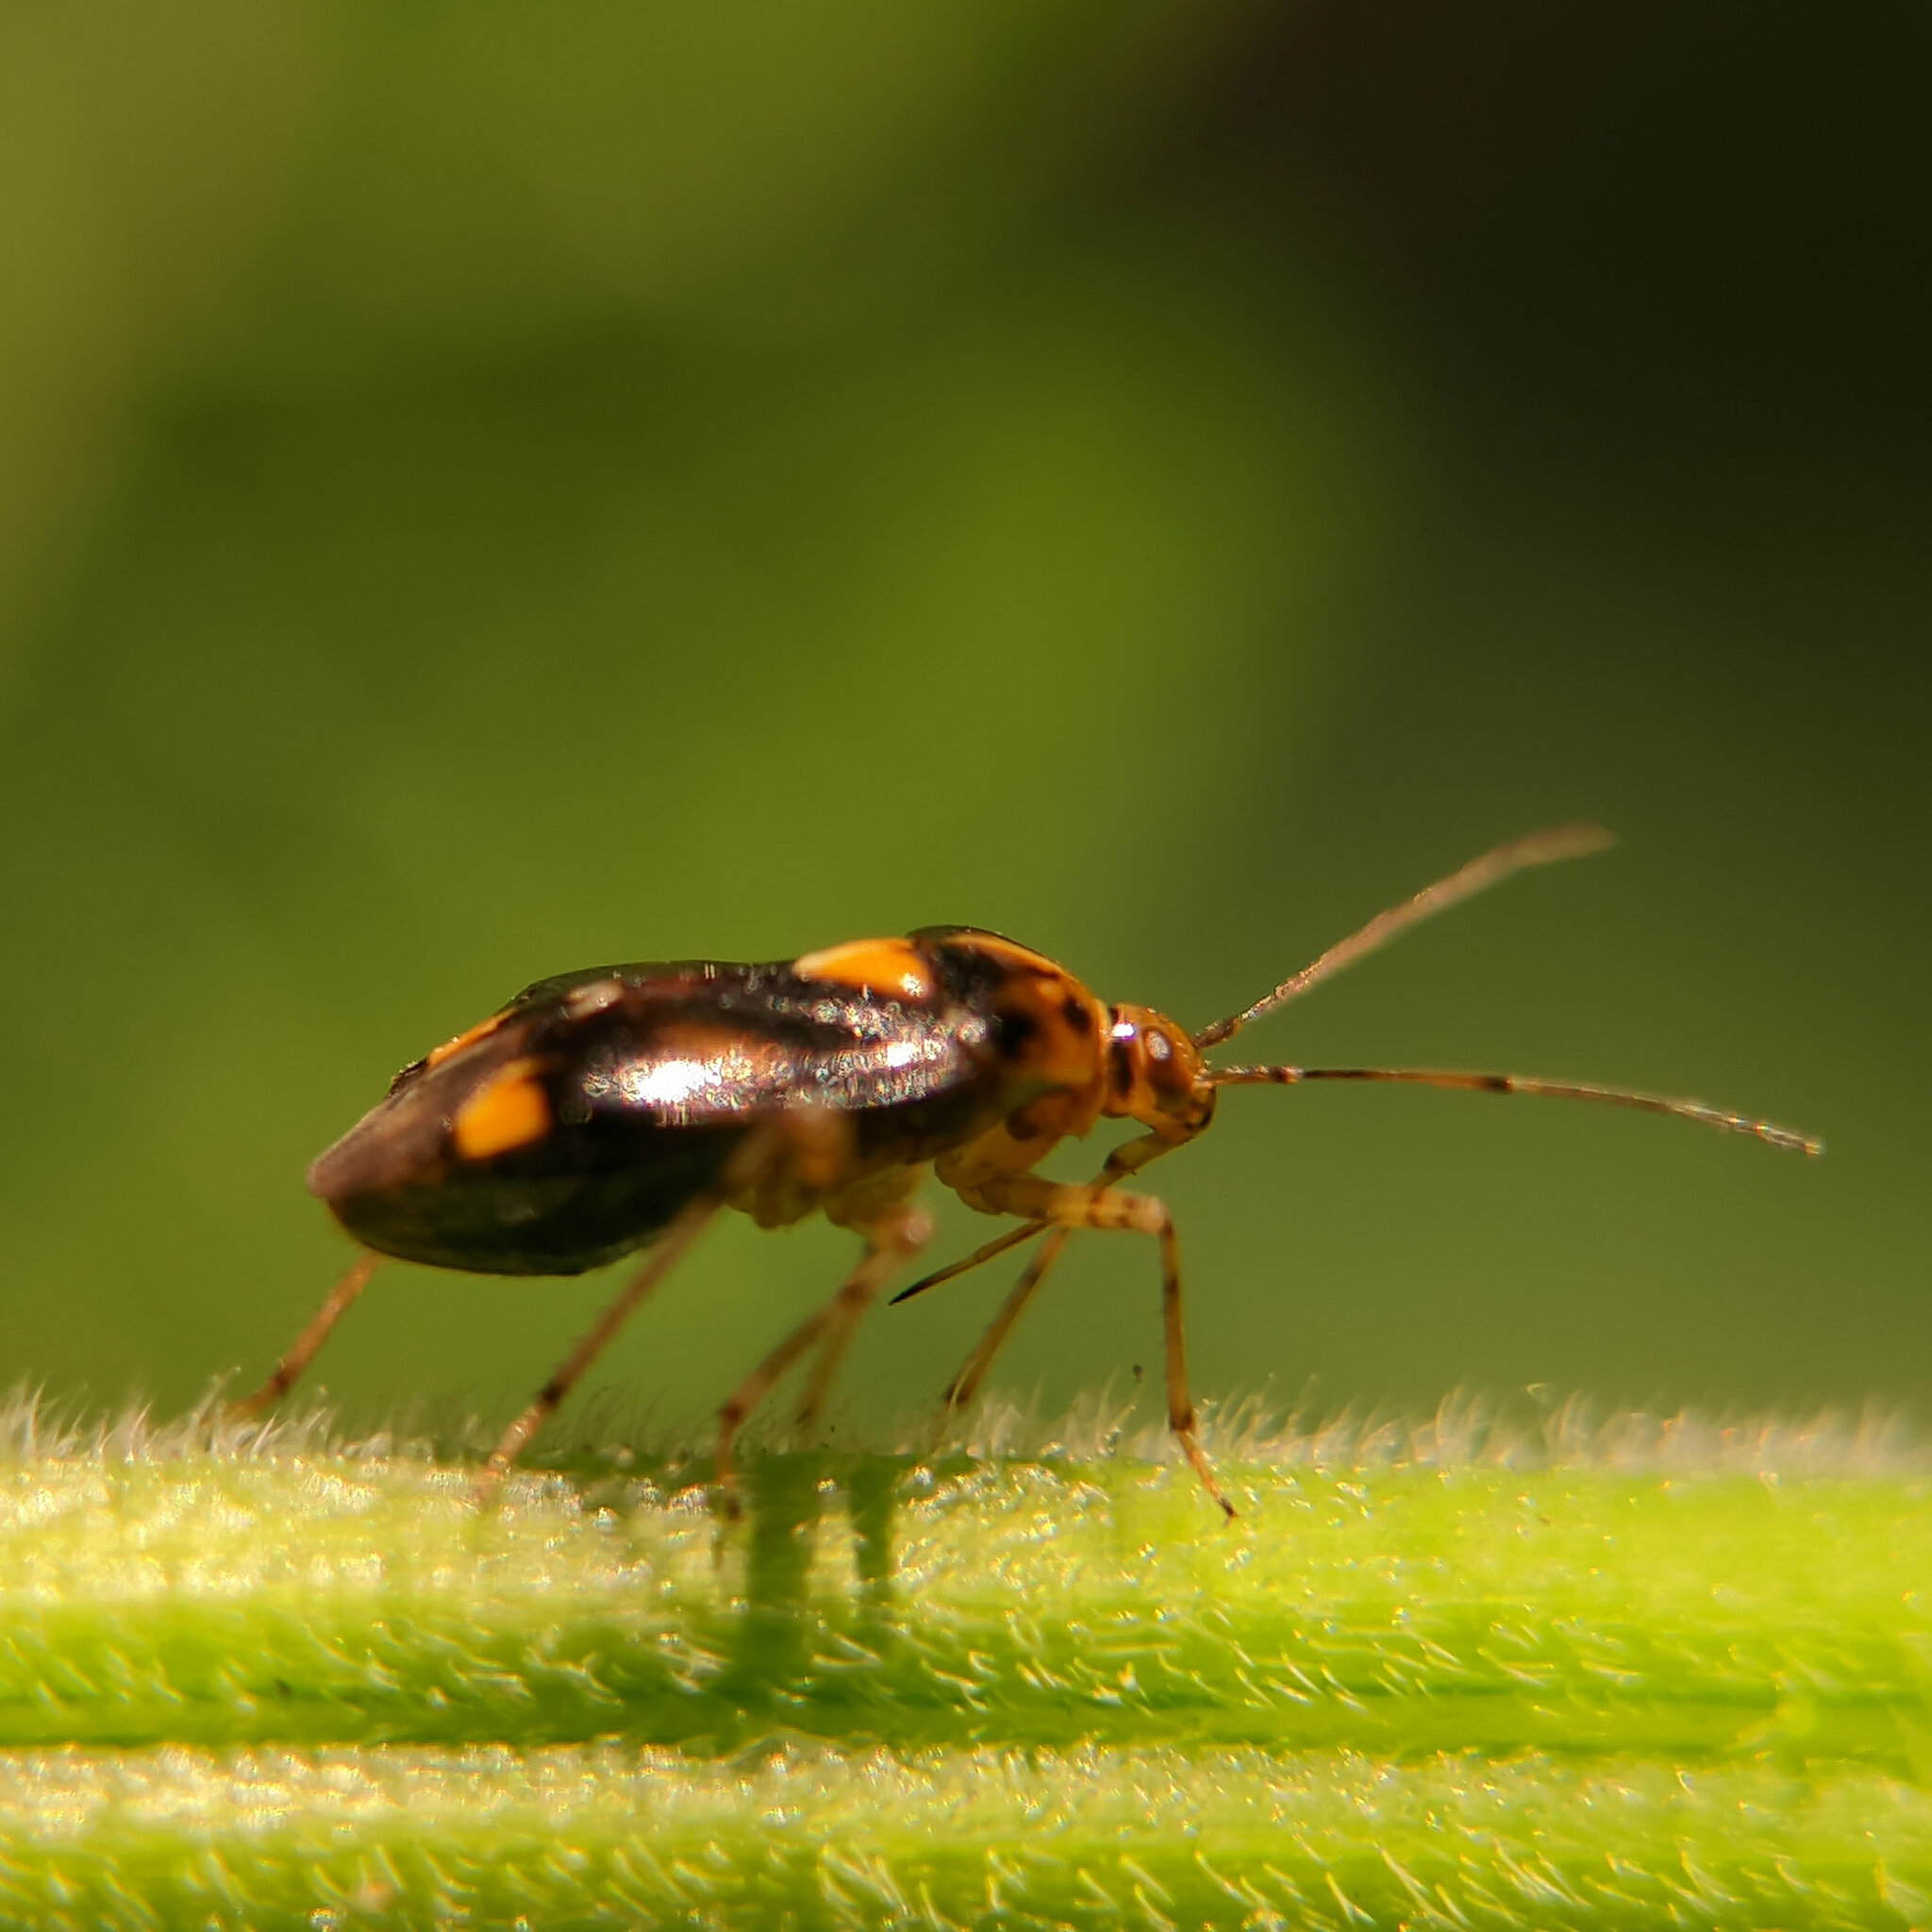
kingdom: Animalia
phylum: Arthropoda
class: Insecta
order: Hemiptera
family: Miridae
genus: Liocoris
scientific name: Liocoris tripustulatus
